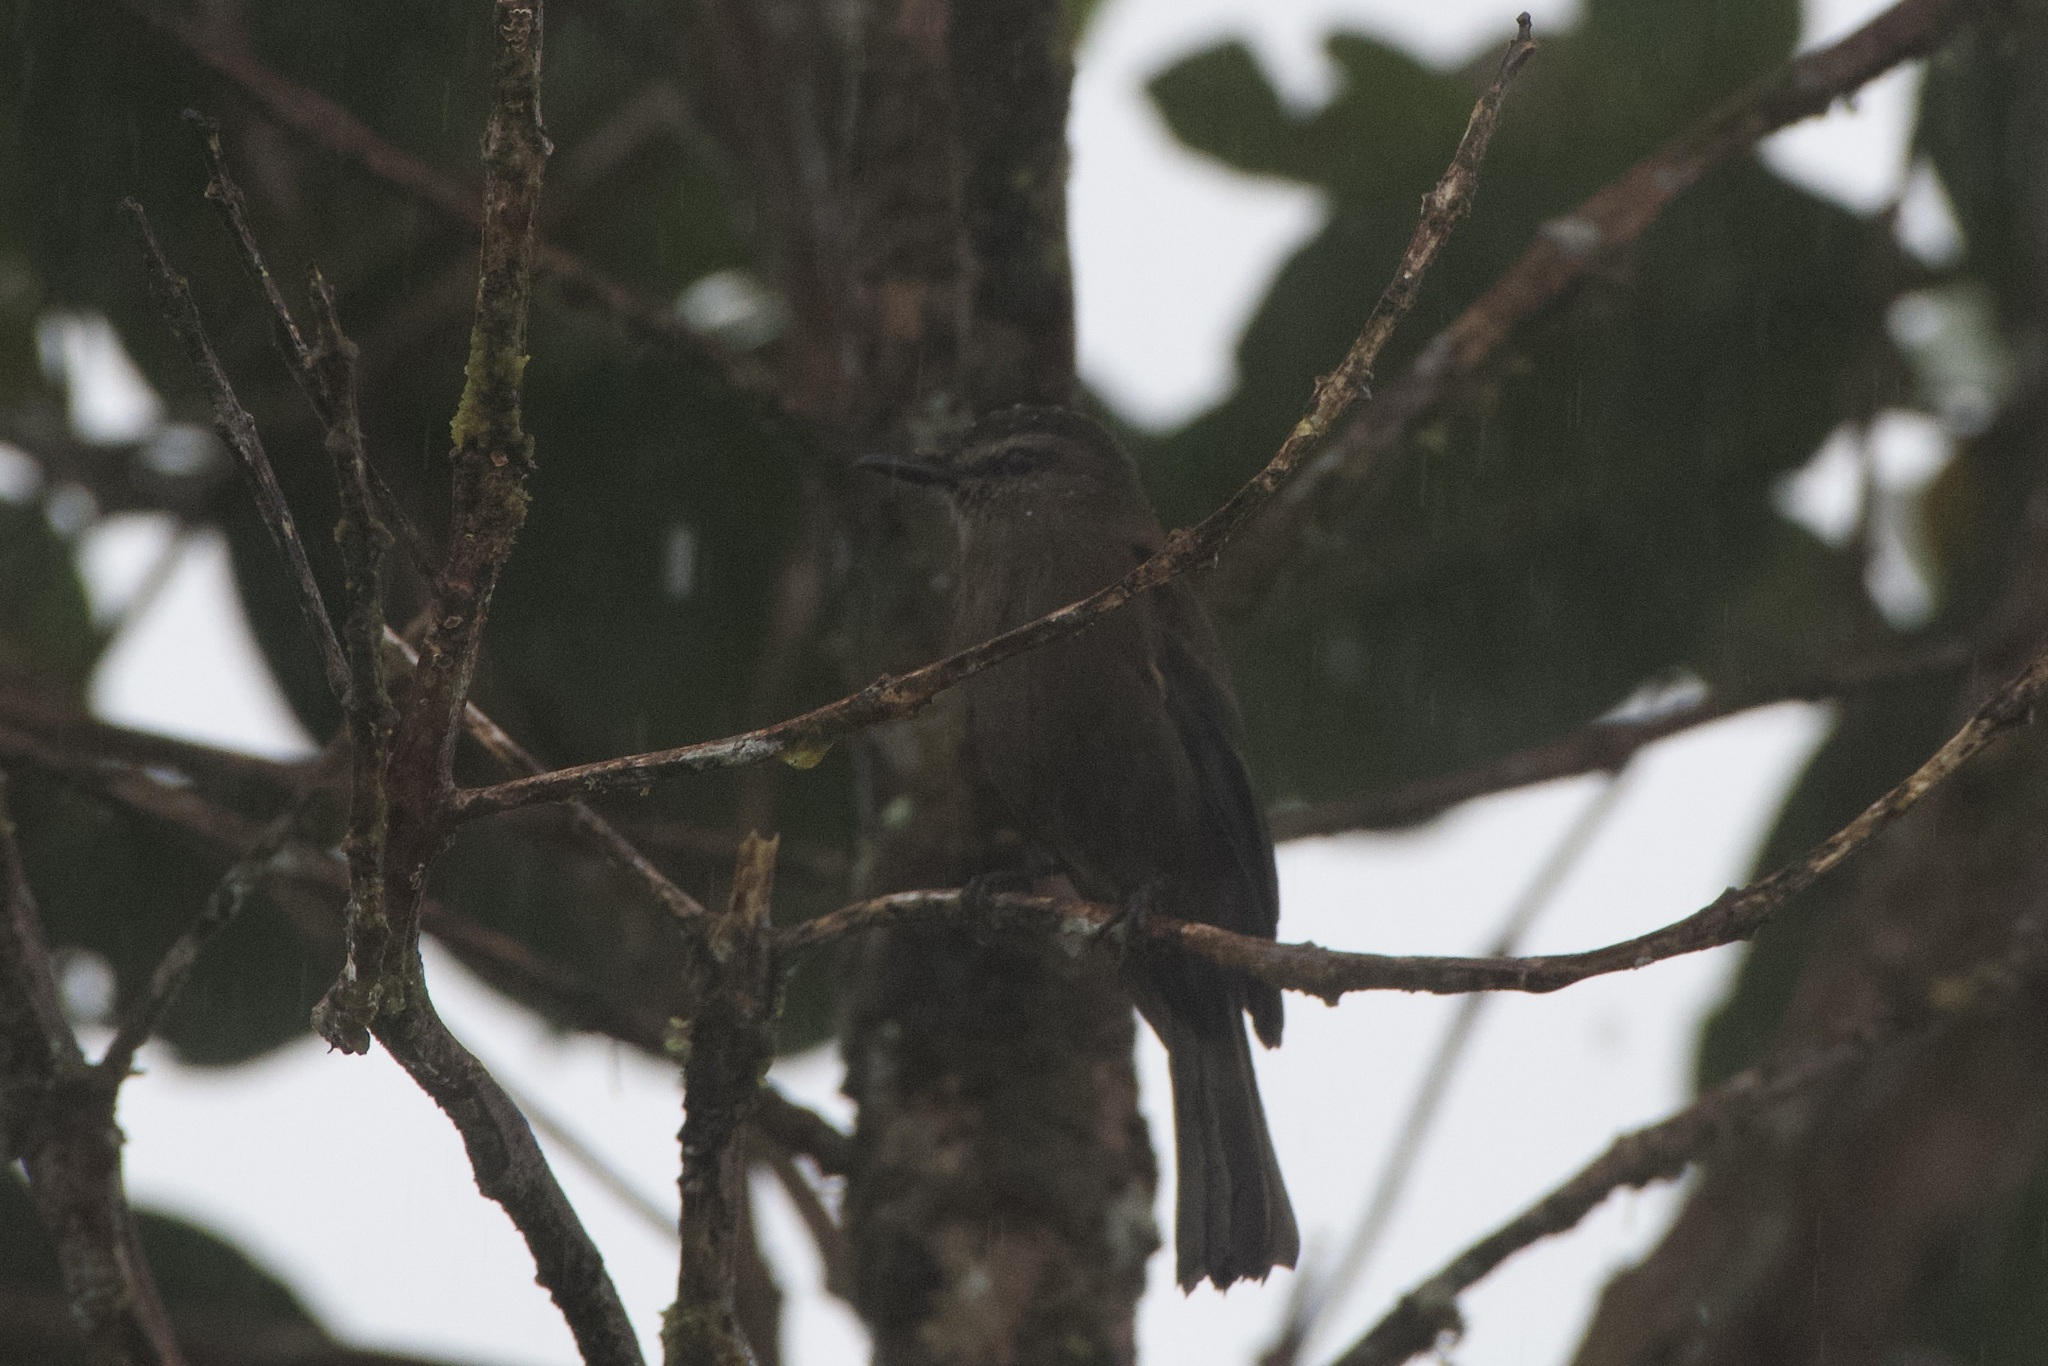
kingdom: Animalia
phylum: Chordata
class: Aves
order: Passeriformes
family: Tyrannidae
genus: Myiotheretes
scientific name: Myiotheretes fumigatus
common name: Smoky bush tyrant
